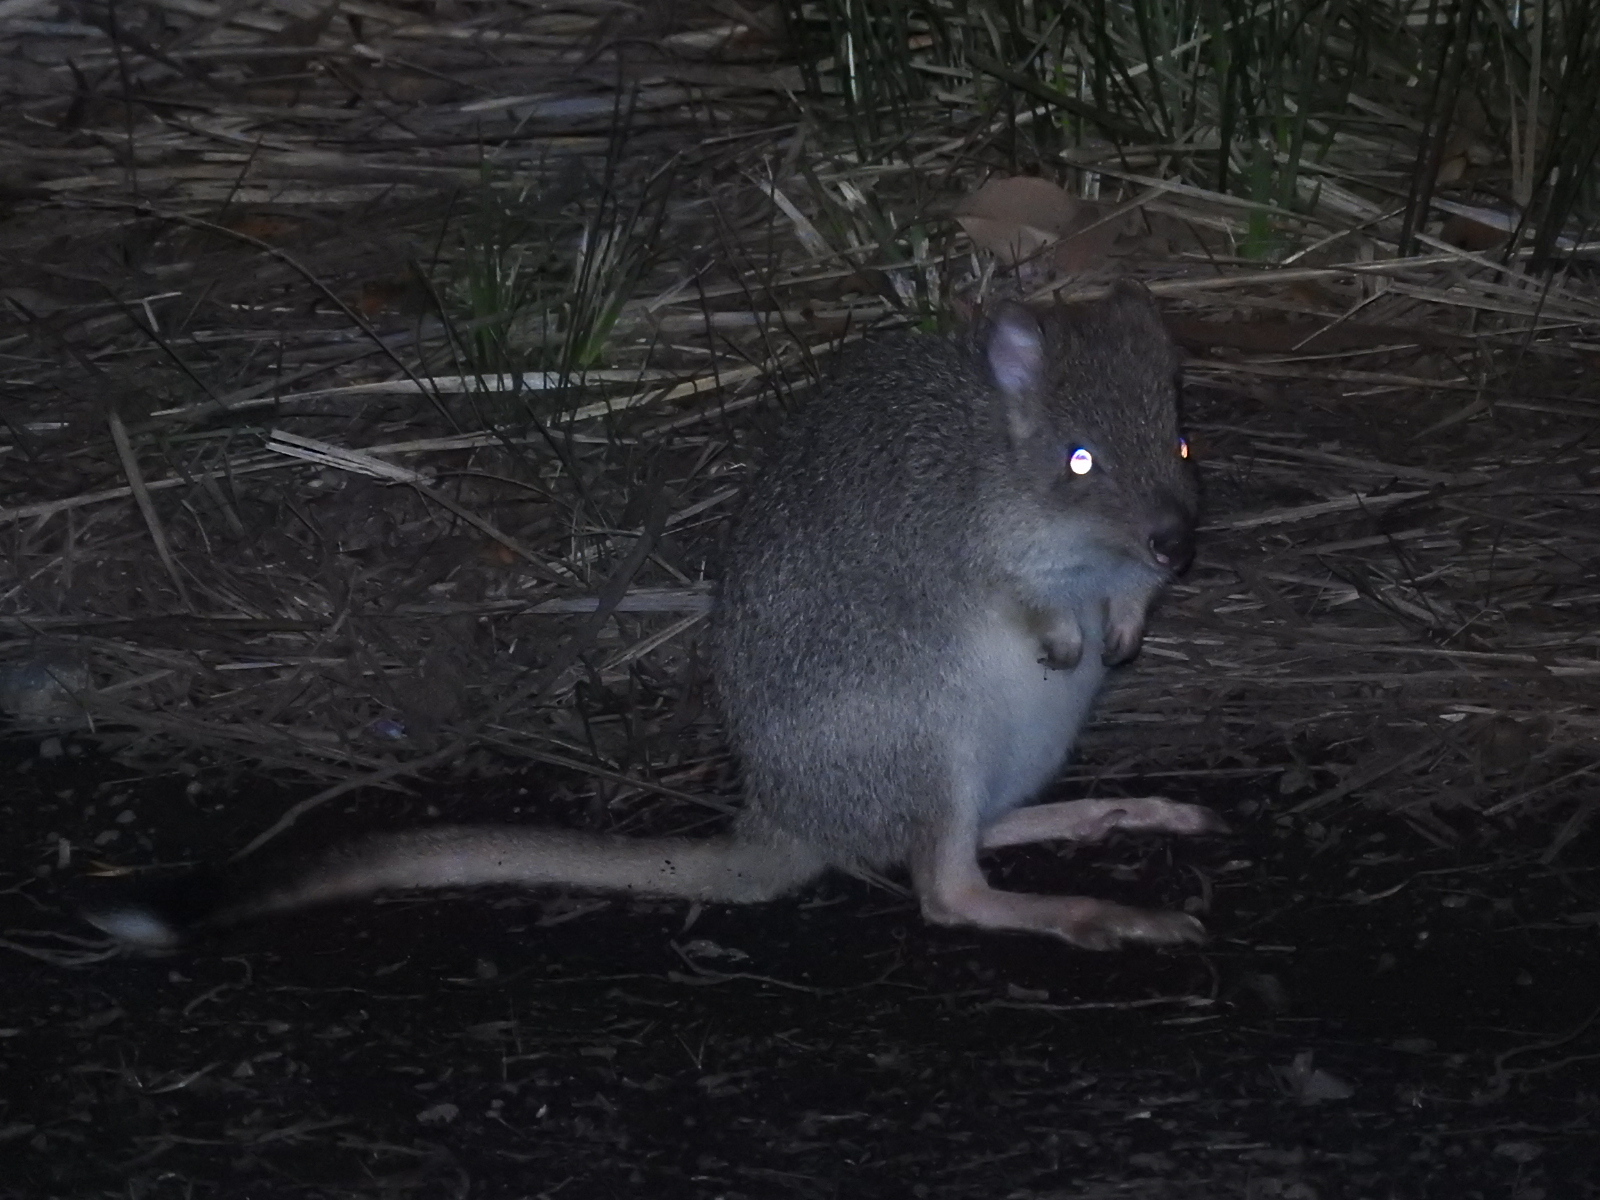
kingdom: Animalia
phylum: Chordata
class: Mammalia
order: Diprotodontia
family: Potoroidae
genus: Bettongia
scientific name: Bettongia gaimardi
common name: Eastern bettong
